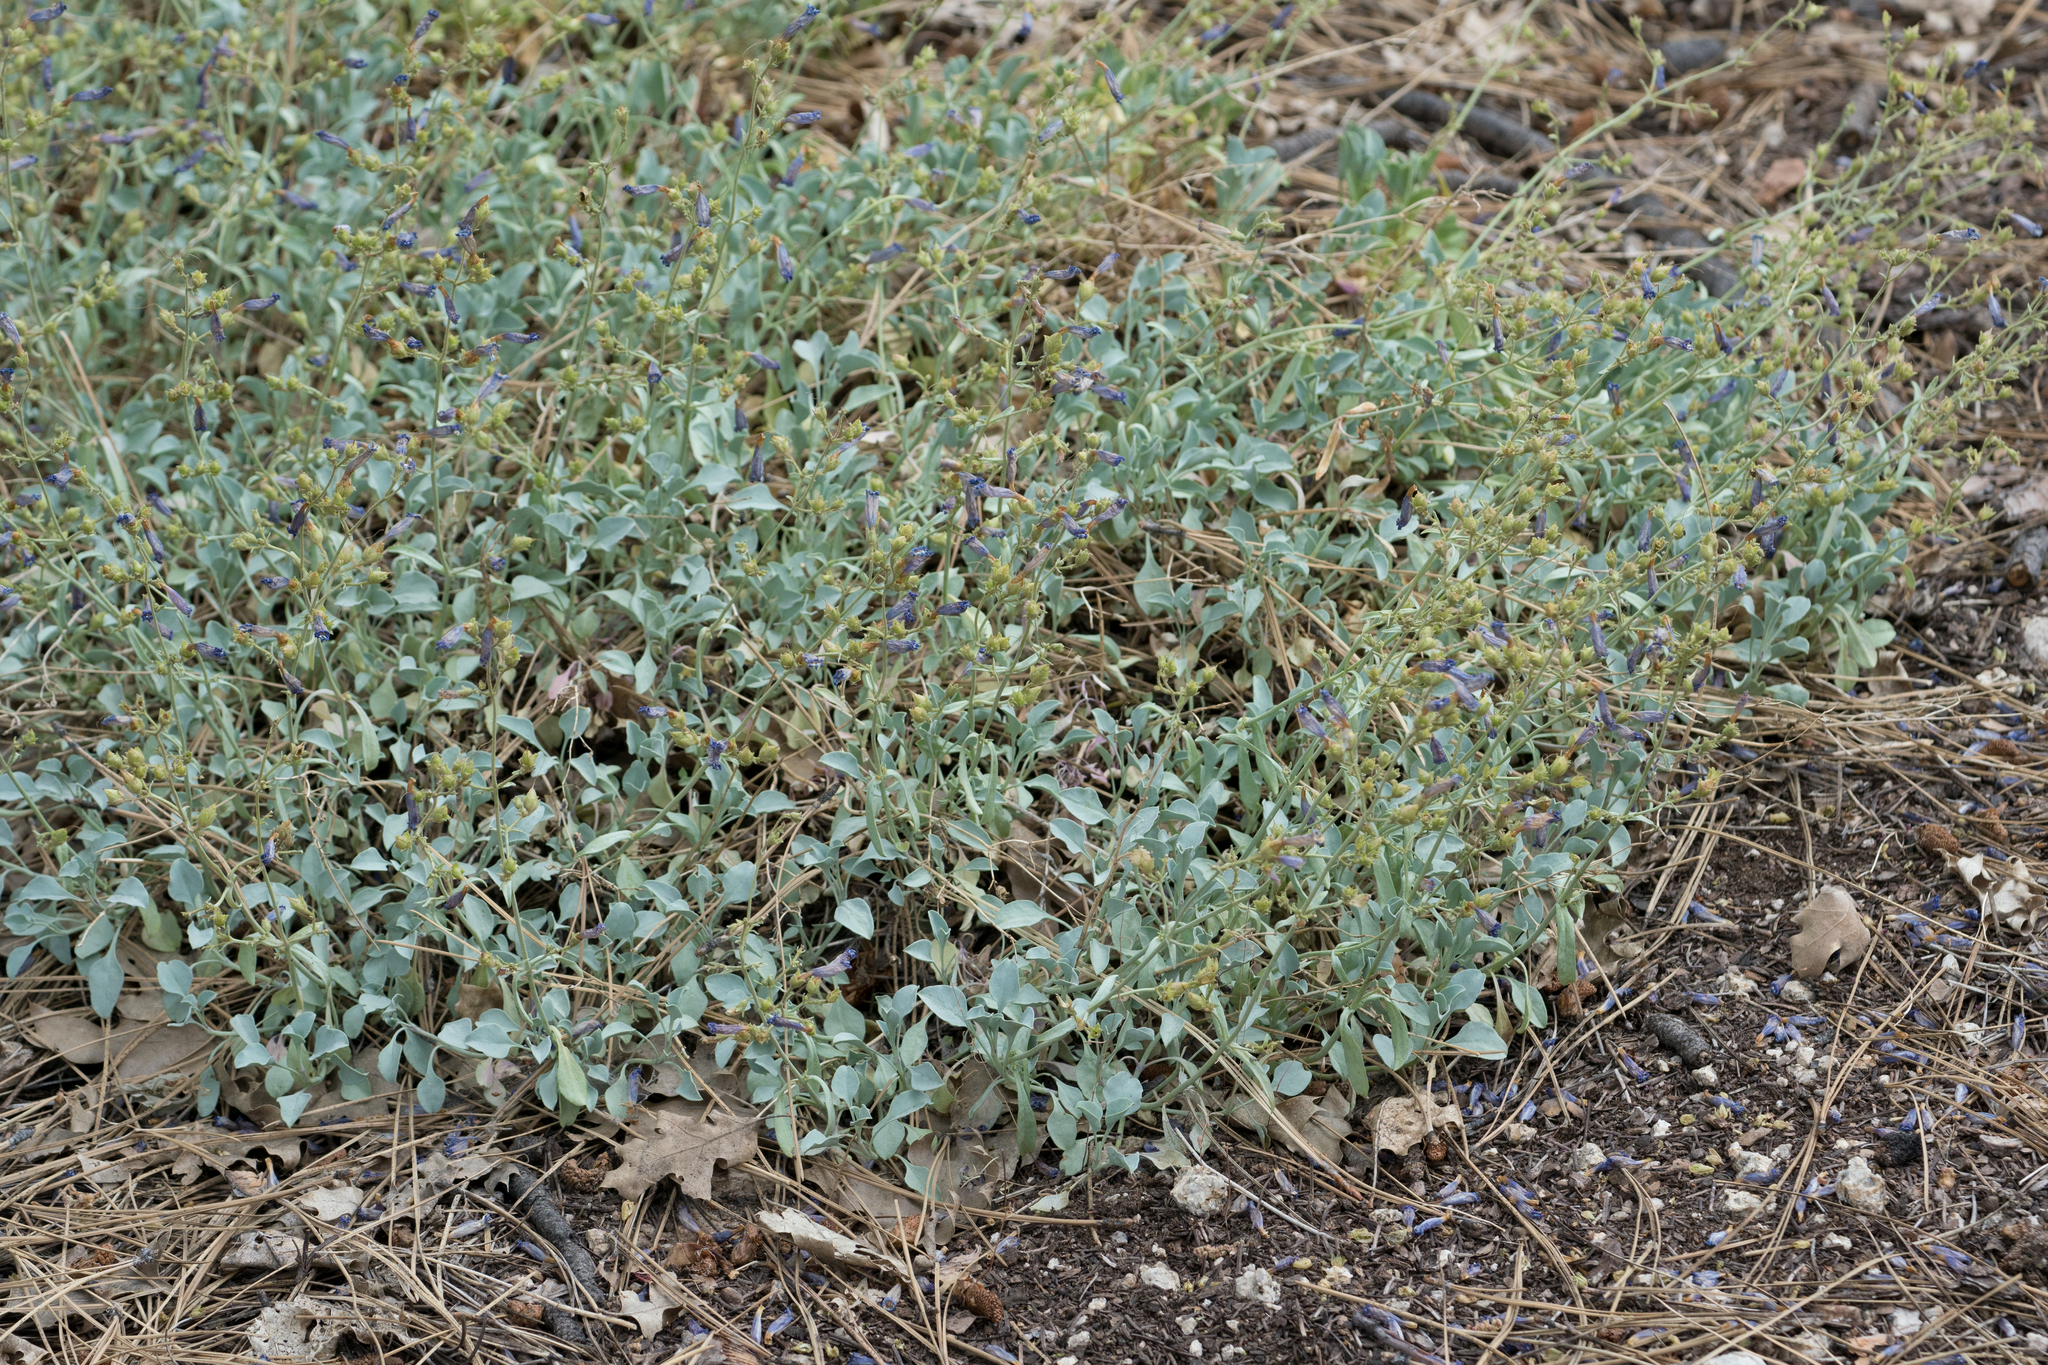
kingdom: Plantae
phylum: Tracheophyta
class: Magnoliopsida
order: Lamiales
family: Plantaginaceae
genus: Penstemon
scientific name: Penstemon caesius
